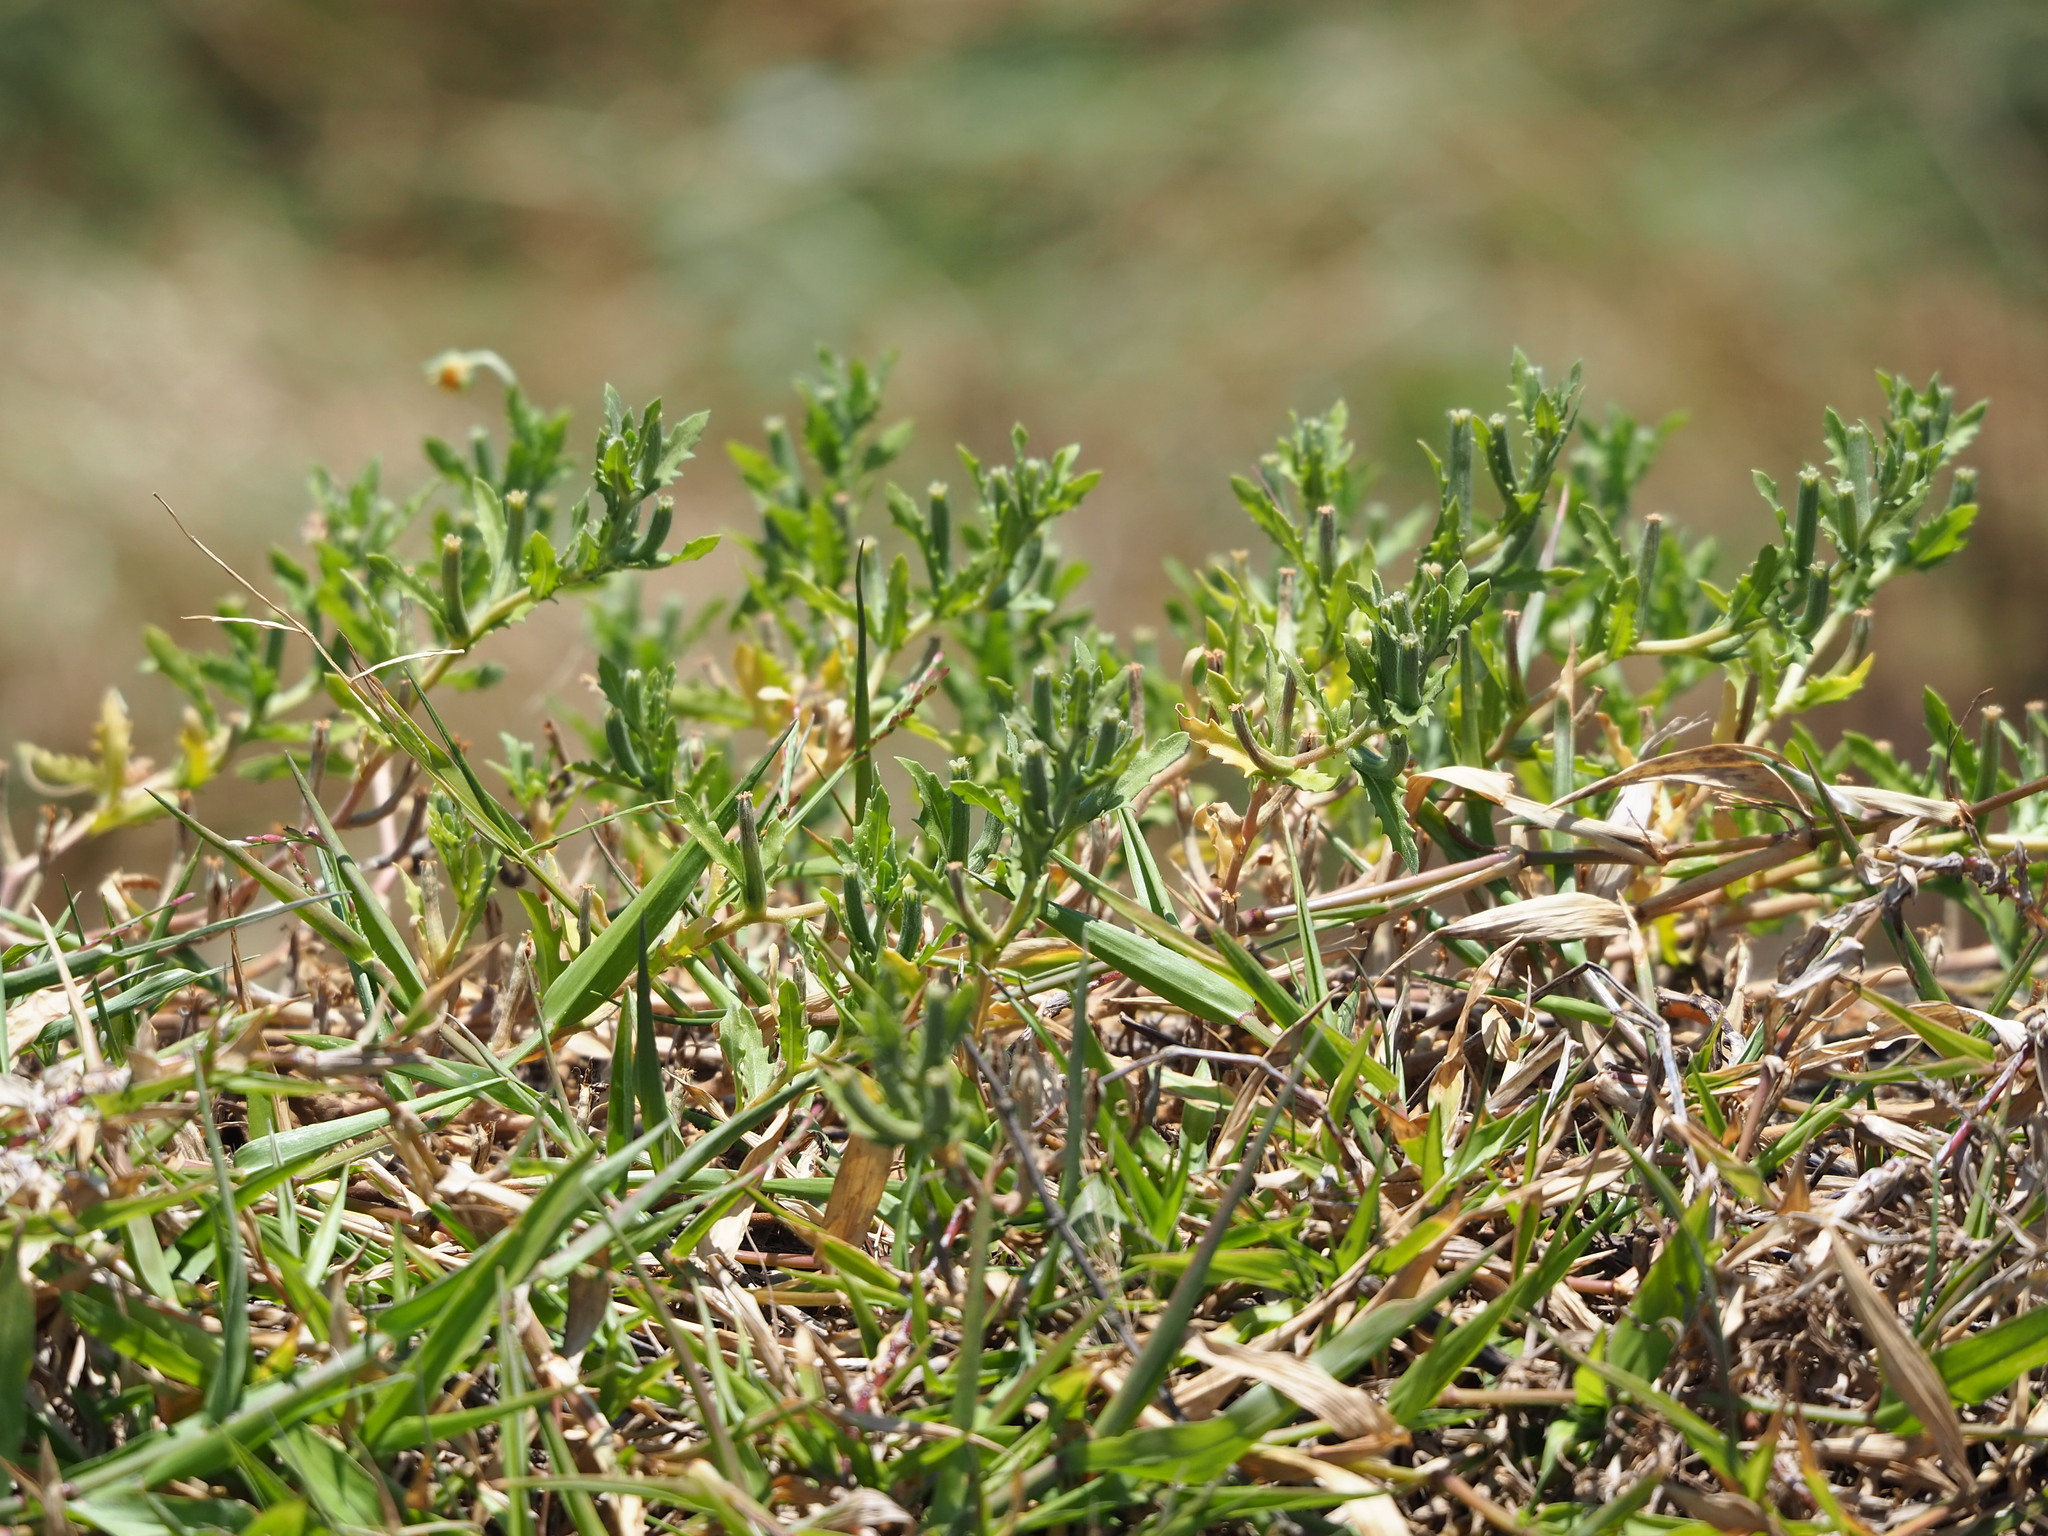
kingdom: Plantae
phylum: Tracheophyta
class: Magnoliopsida
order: Myrtales
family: Onagraceae
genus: Oenothera
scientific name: Oenothera laciniata
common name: Cut-leaved evening-primrose
